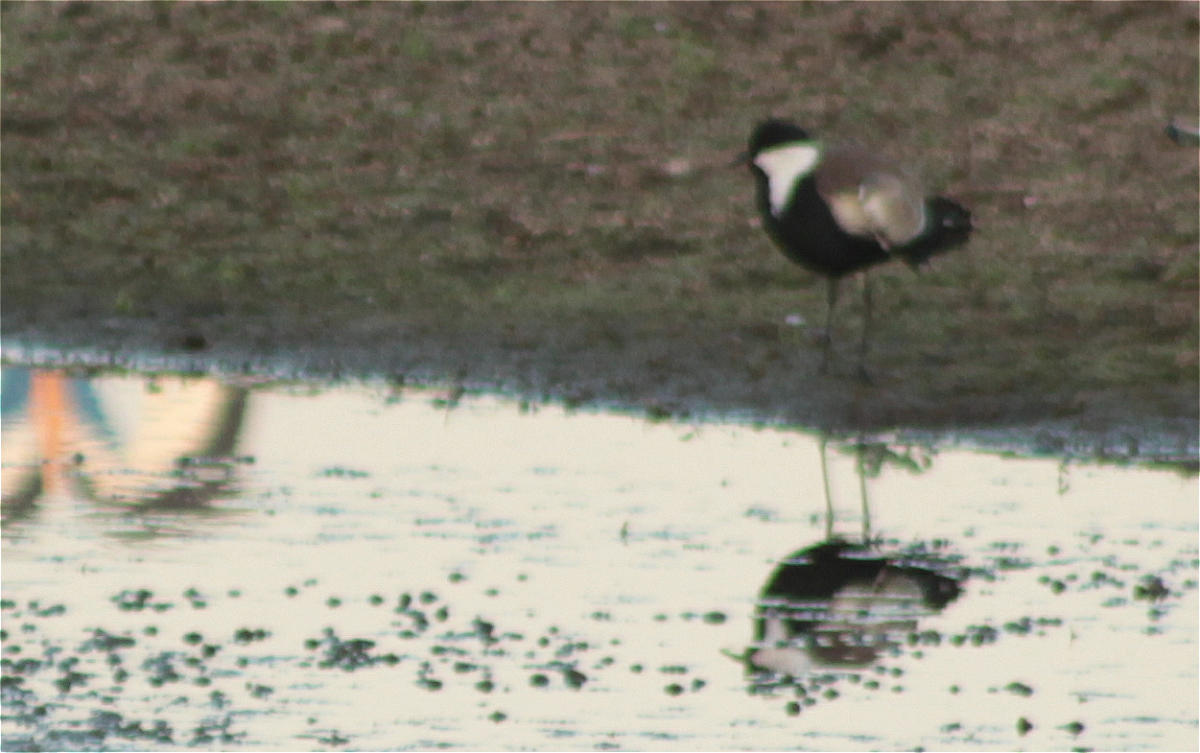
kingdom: Animalia
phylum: Chordata
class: Aves
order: Charadriiformes
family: Charadriidae
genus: Vanellus
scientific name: Vanellus spinosus
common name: Spur-winged lapwing
